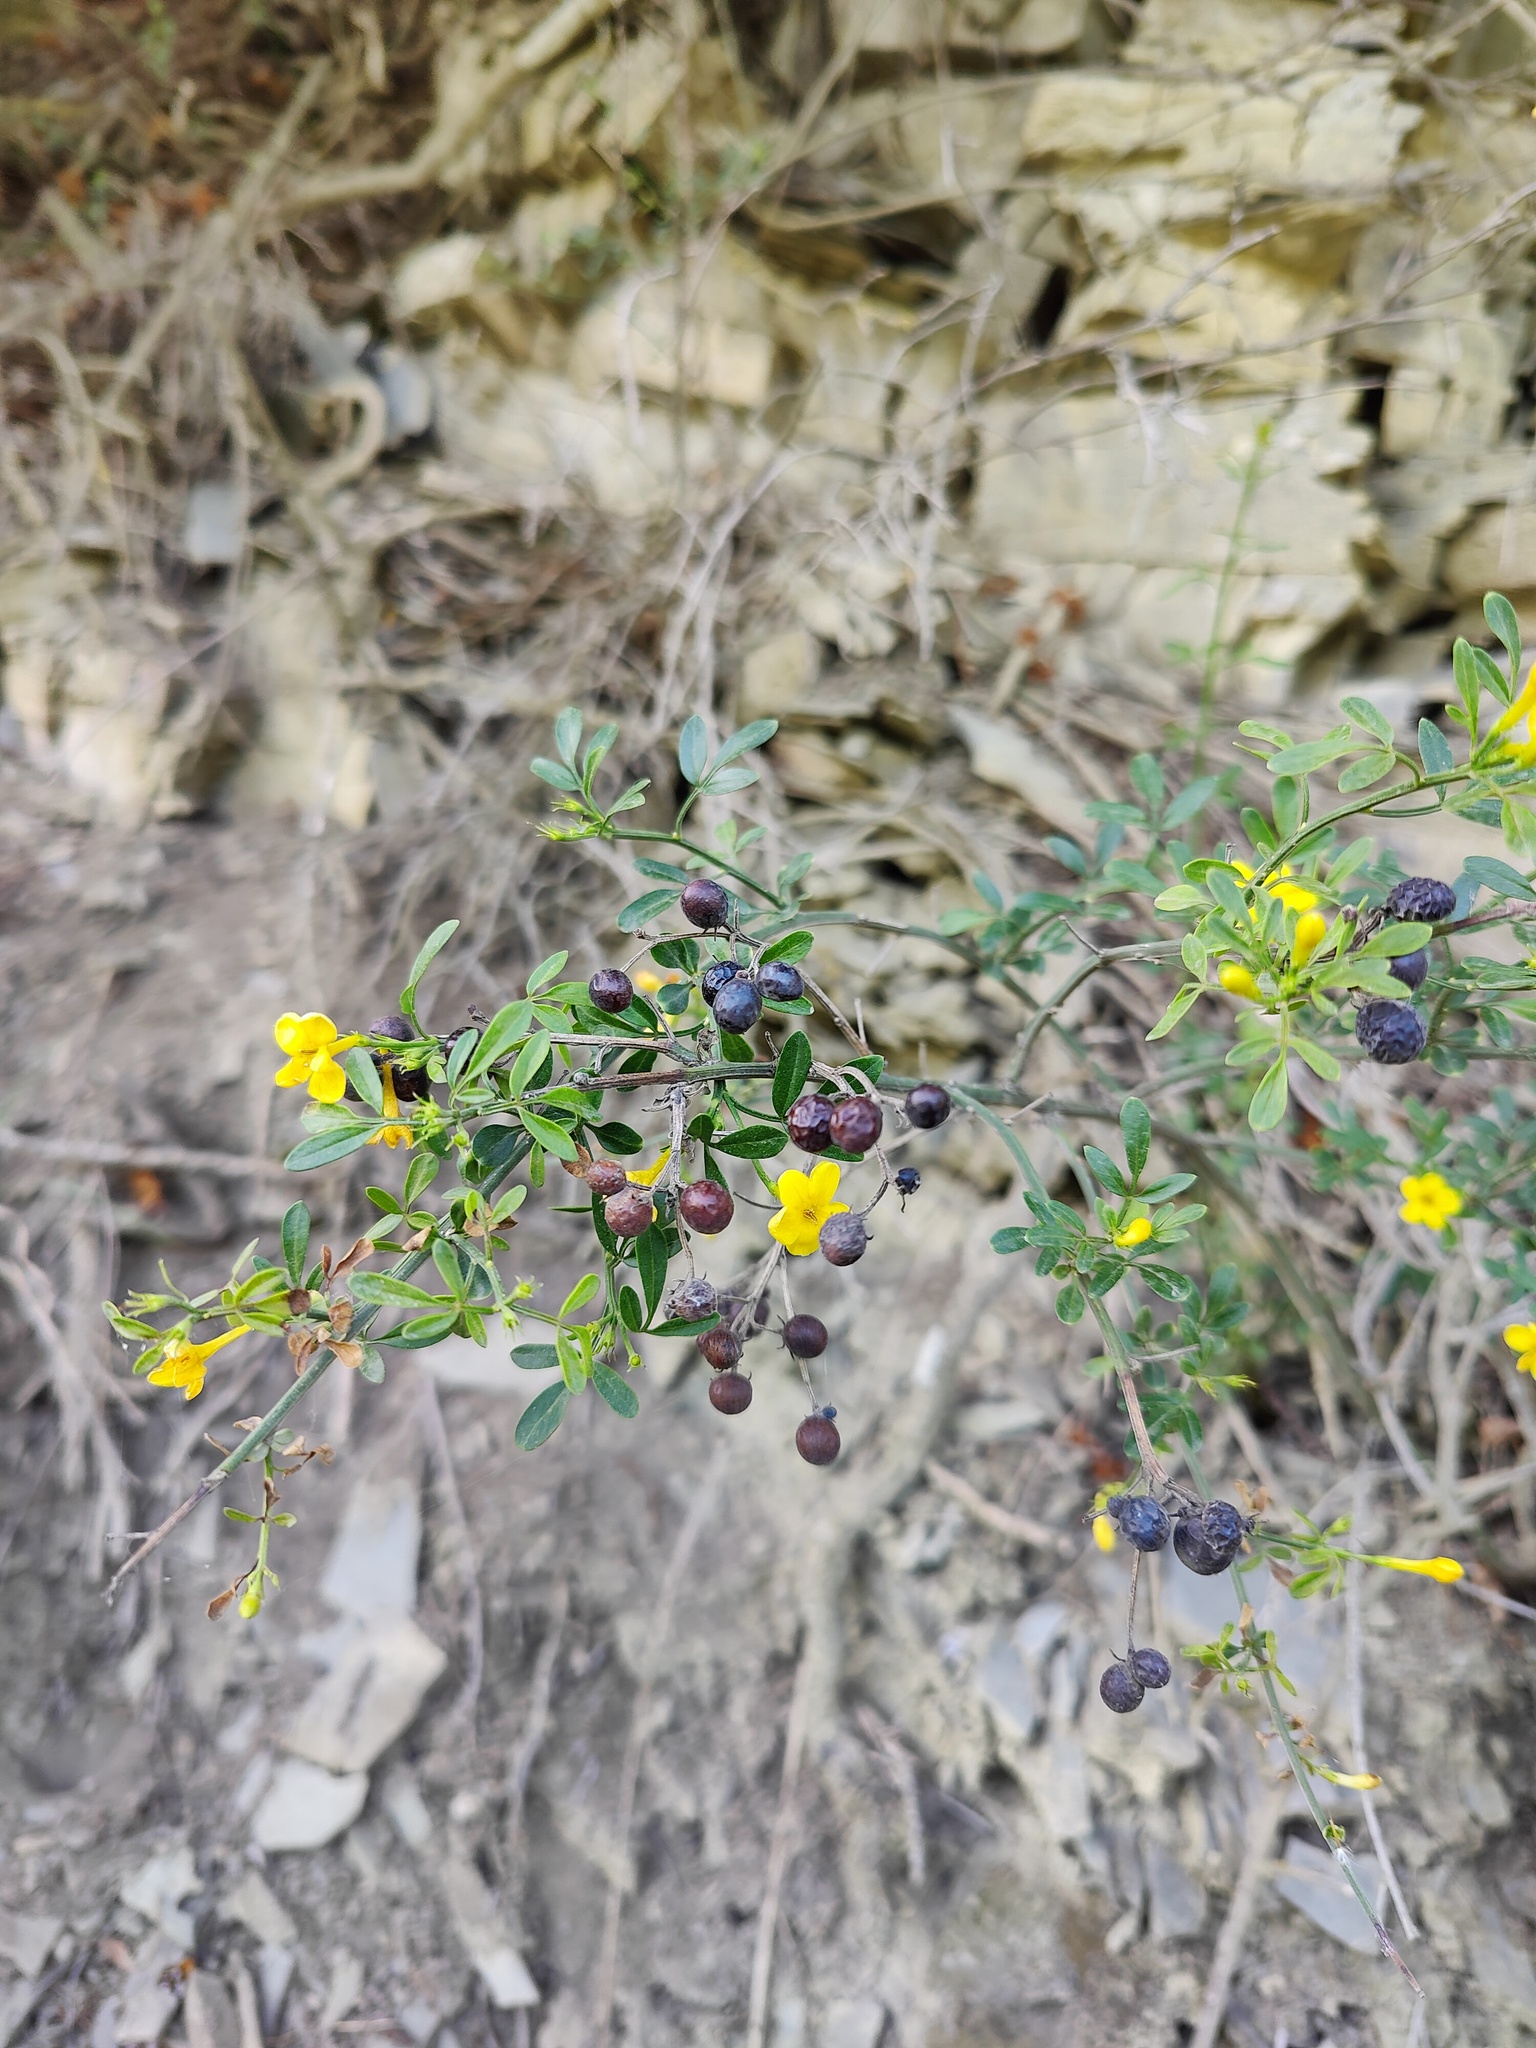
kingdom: Plantae
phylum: Tracheophyta
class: Magnoliopsida
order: Lamiales
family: Oleaceae
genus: Chrysojasminum
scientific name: Chrysojasminum fruticans
